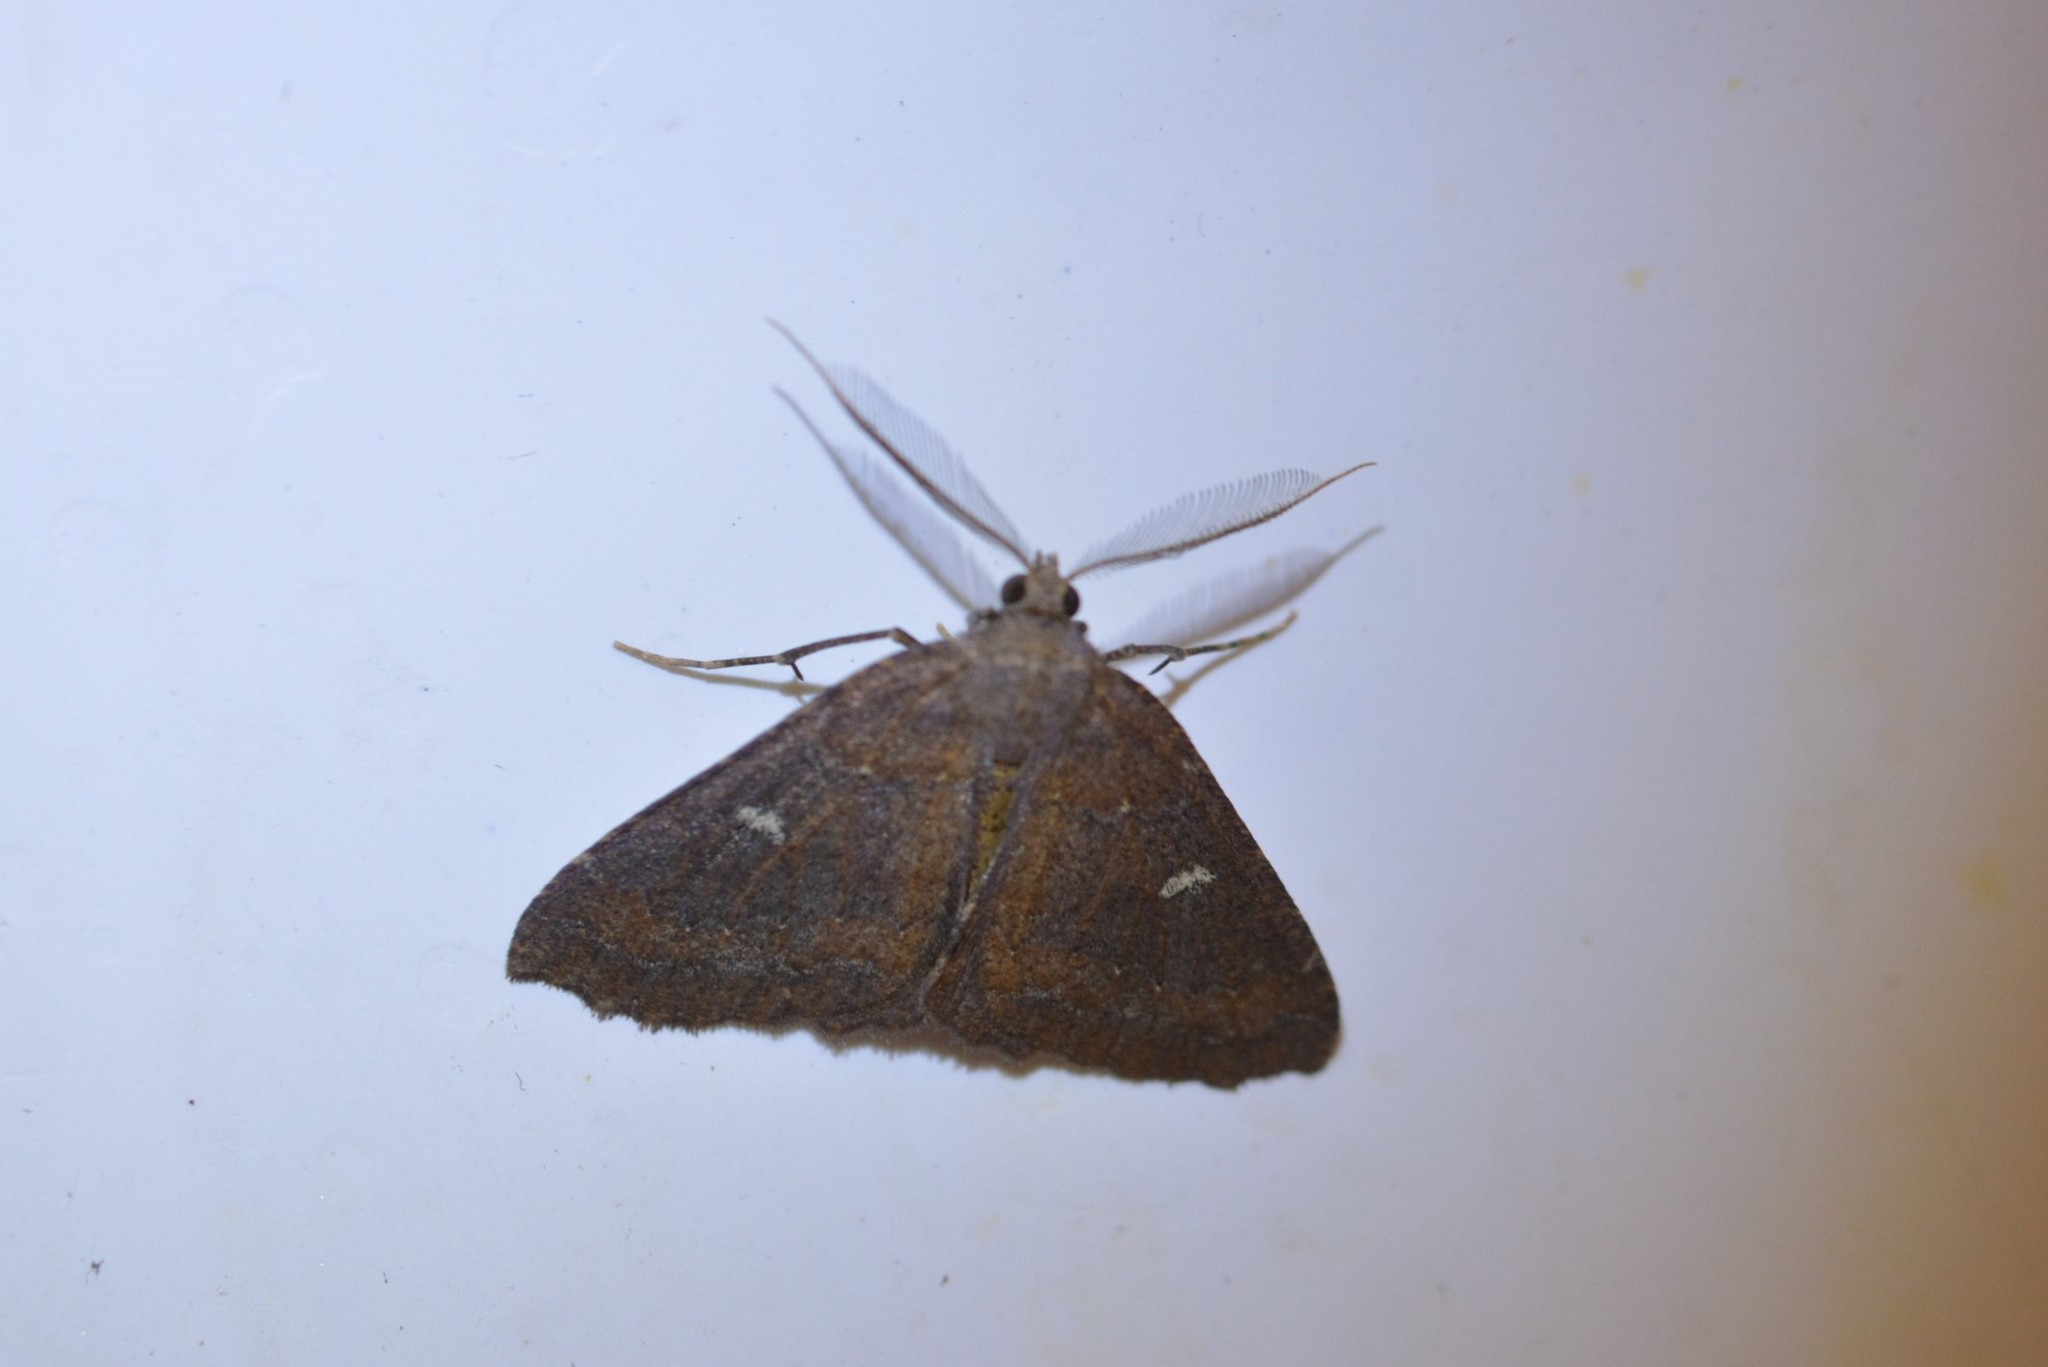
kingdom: Animalia
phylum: Arthropoda
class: Insecta
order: Lepidoptera
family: Geometridae
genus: Cleora
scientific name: Cleora scriptaria
